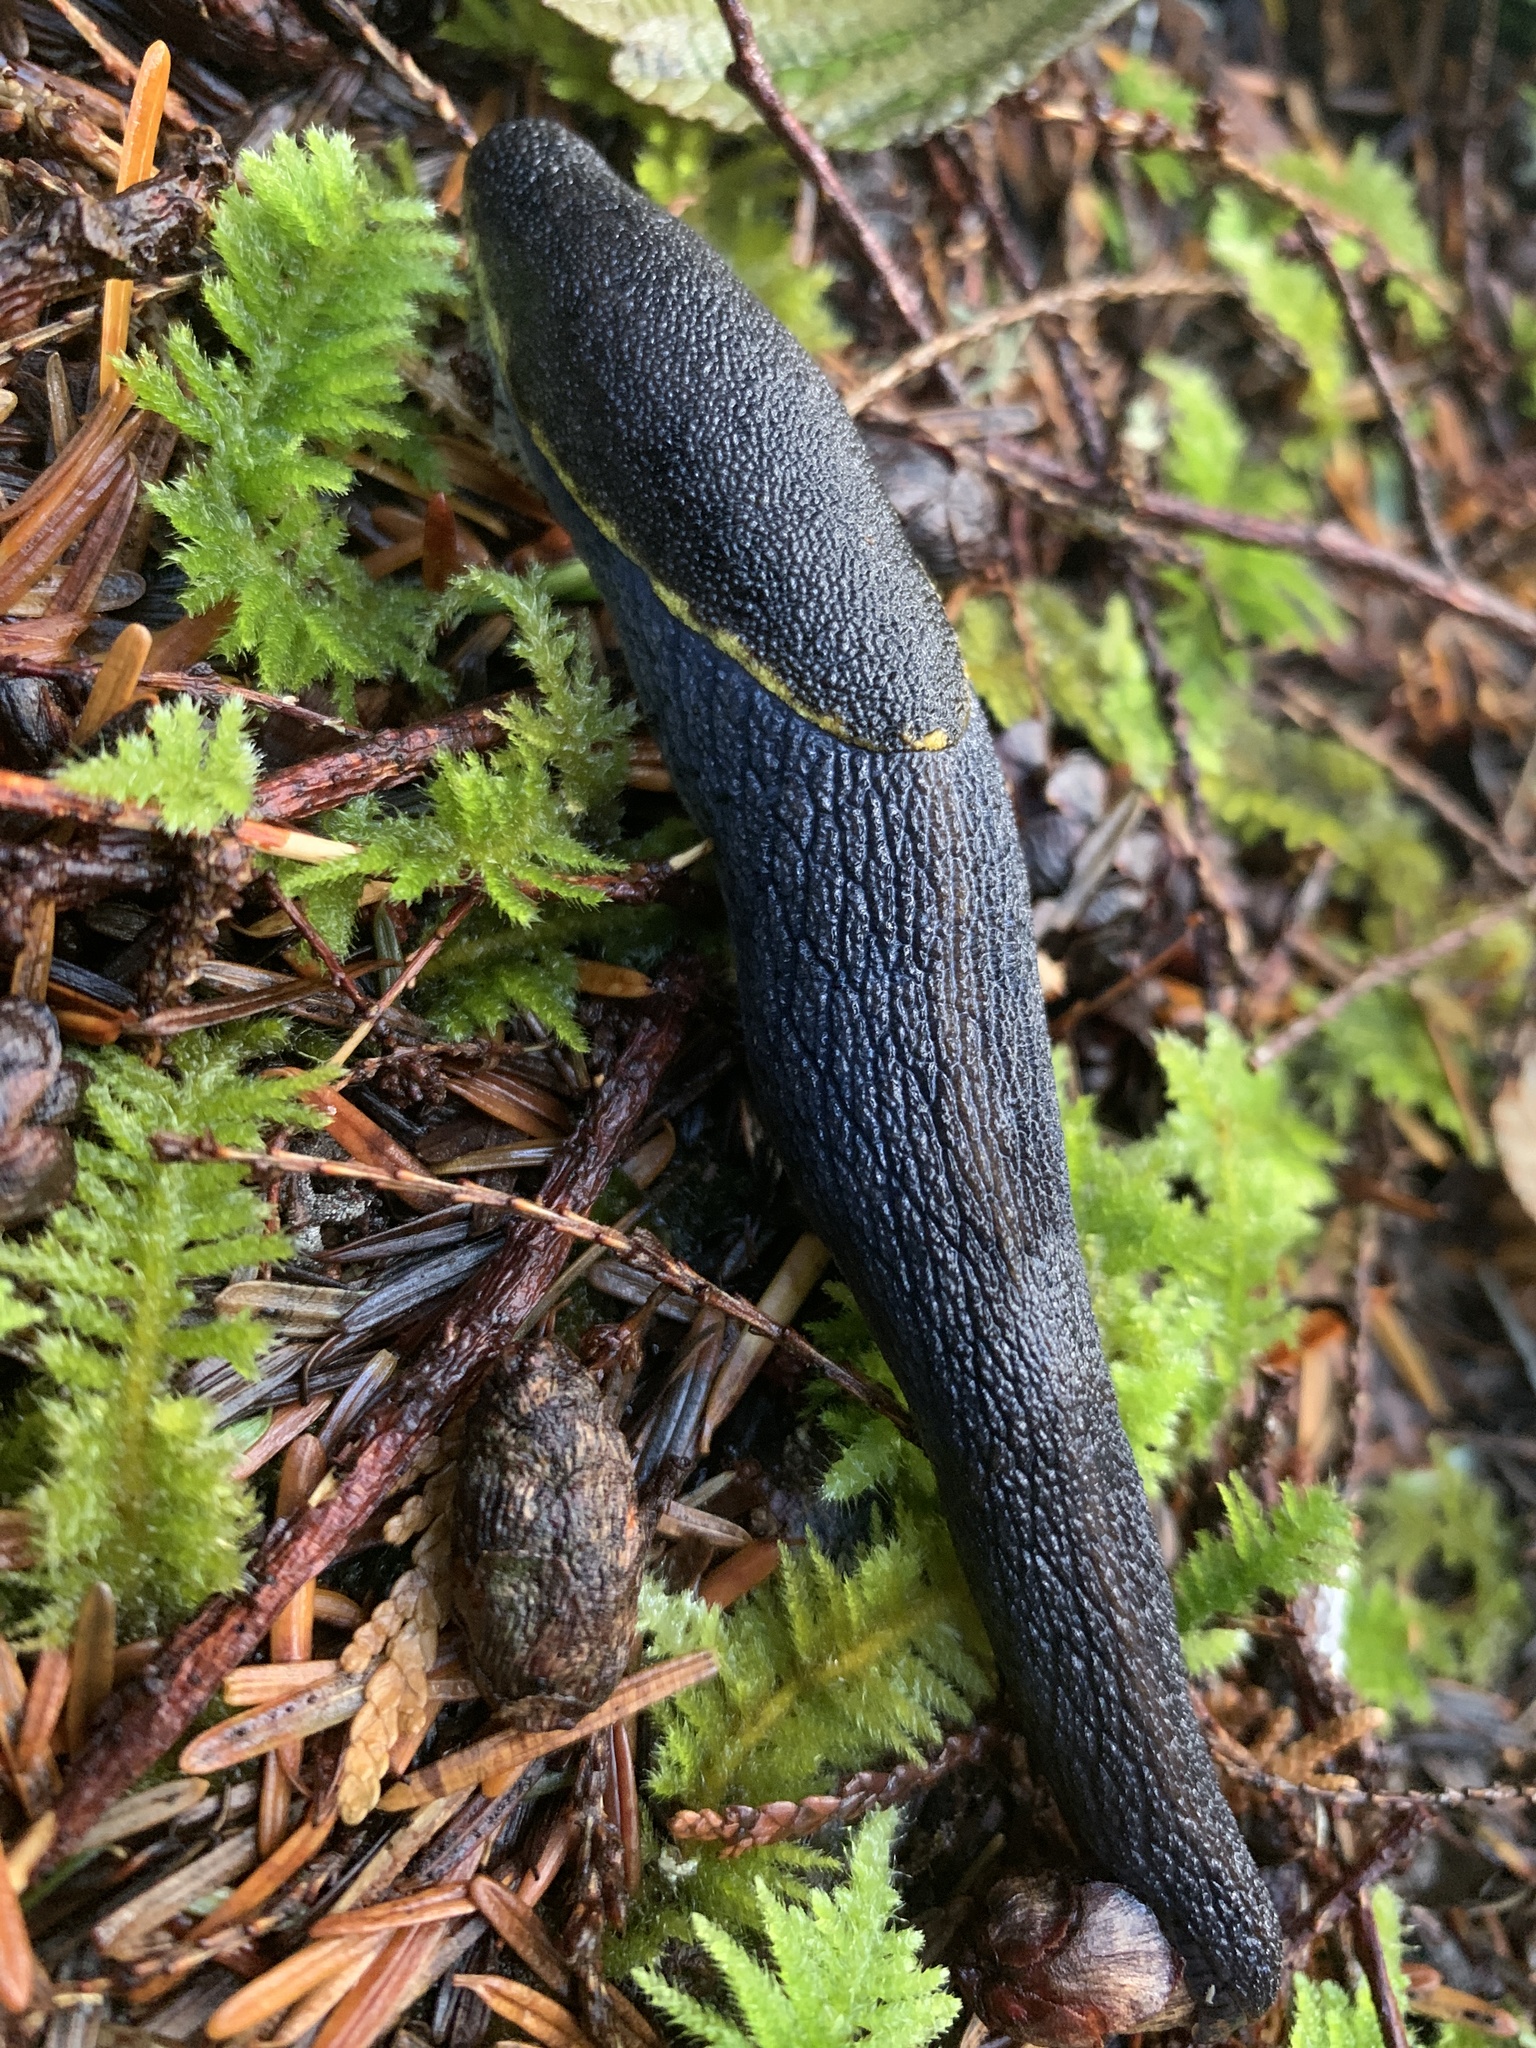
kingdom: Animalia
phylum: Mollusca
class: Gastropoda
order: Stylommatophora
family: Ariolimacidae
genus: Prophysaon
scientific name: Prophysaon foliolatum
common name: Yellow-bordered taildropper
